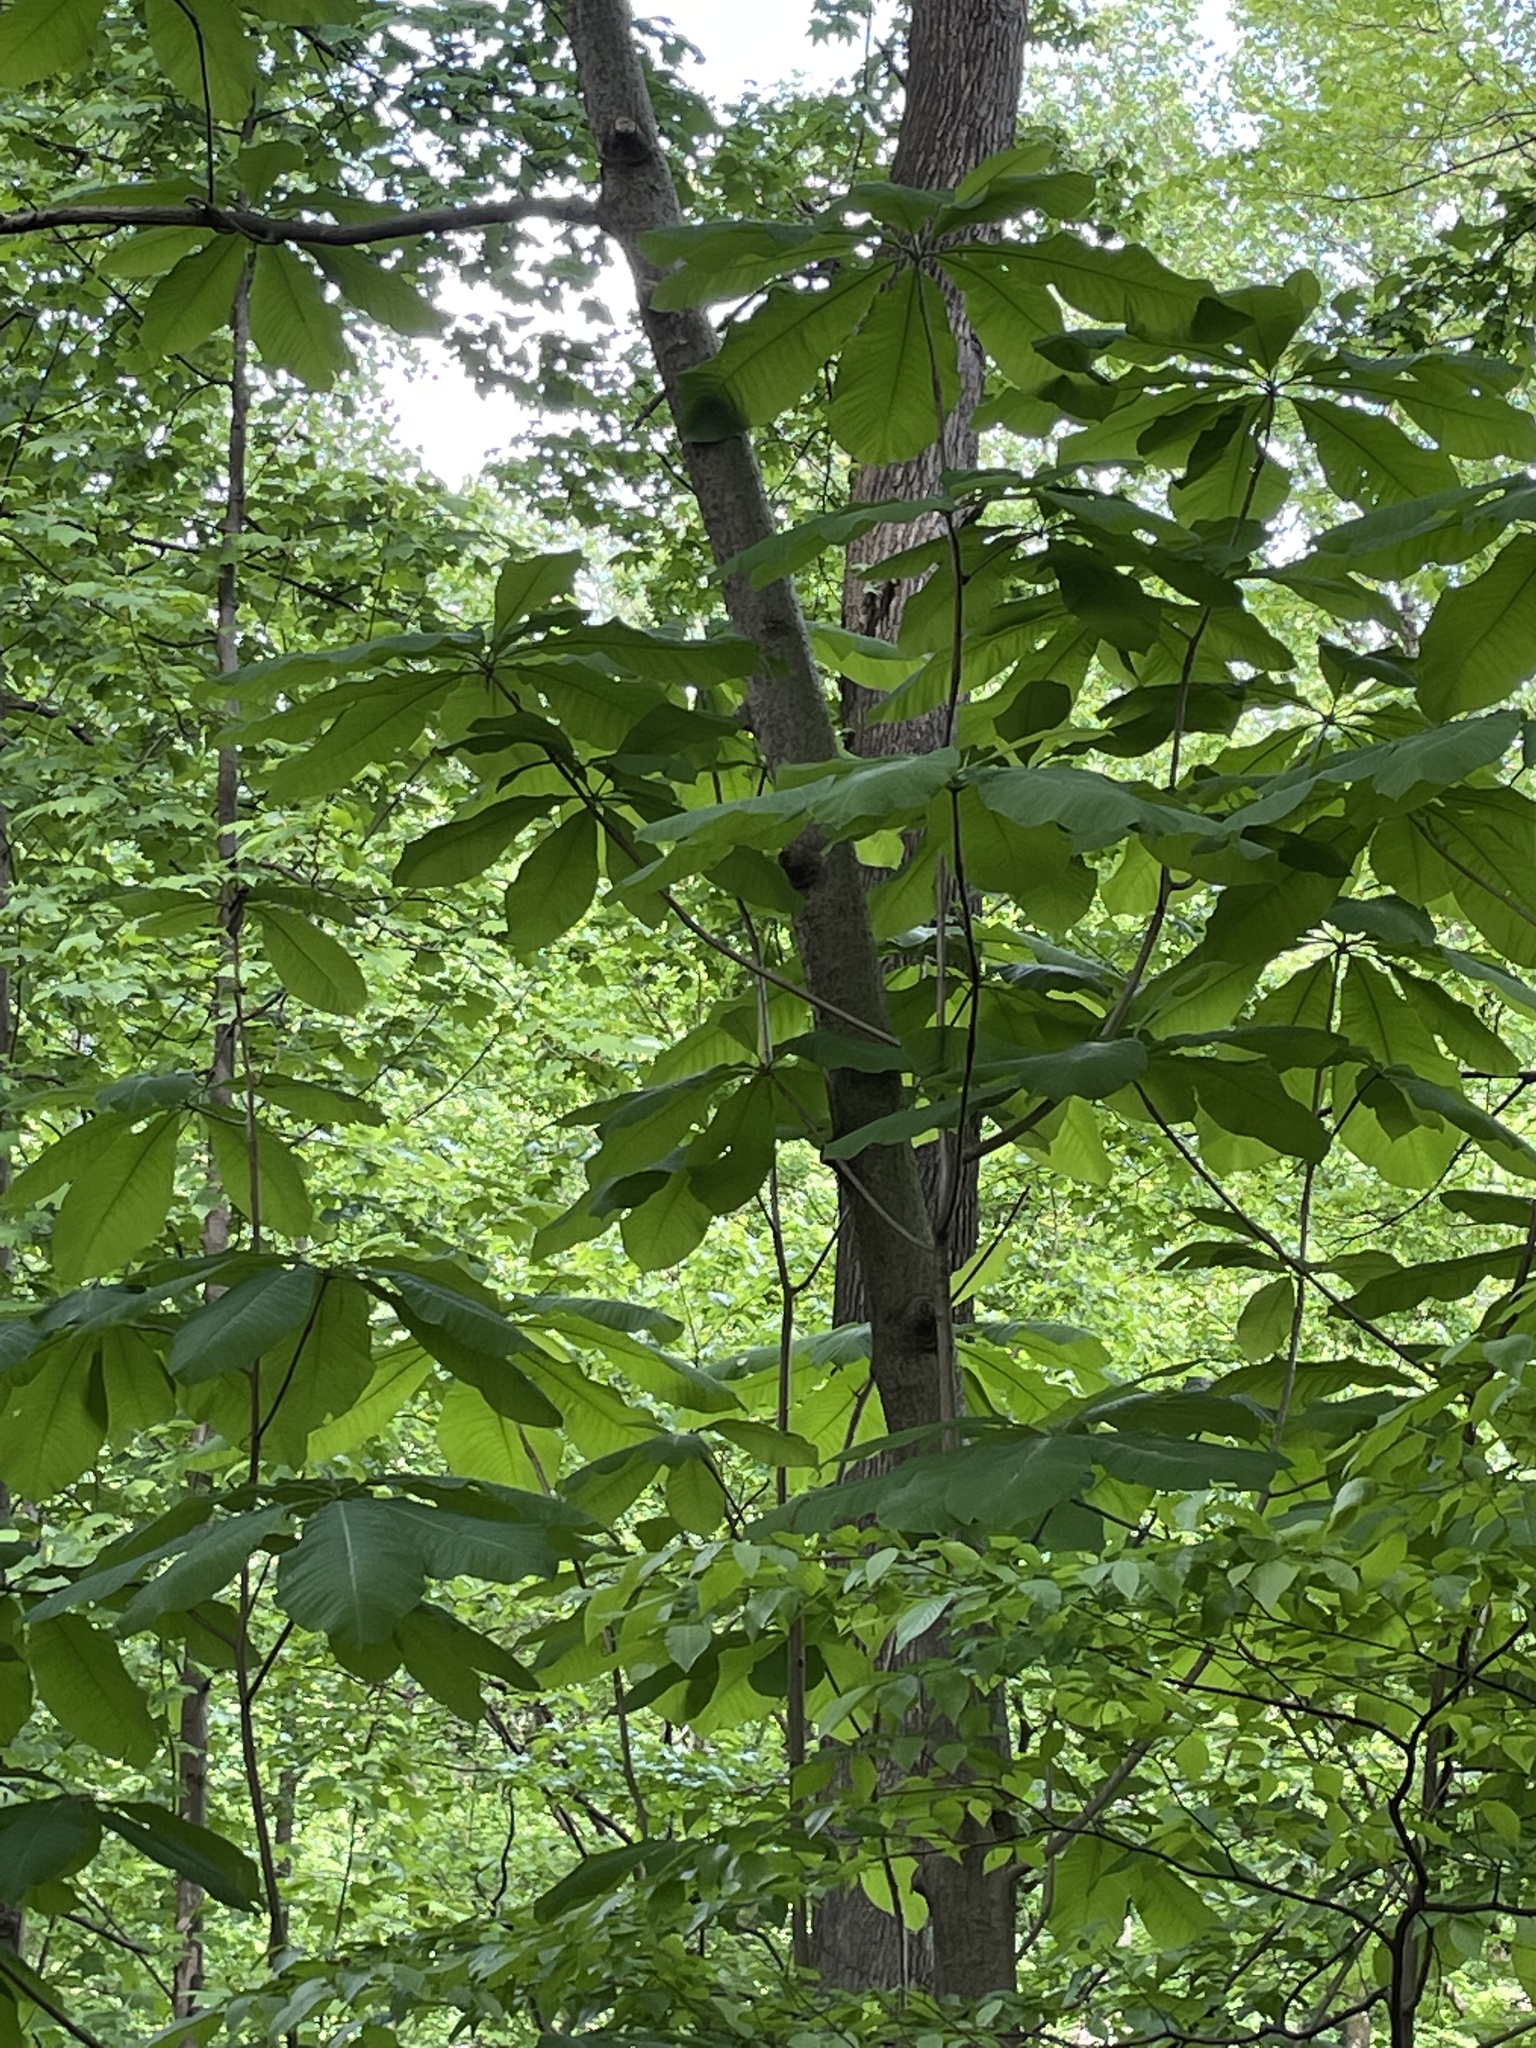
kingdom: Plantae
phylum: Tracheophyta
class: Magnoliopsida
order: Magnoliales
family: Magnoliaceae
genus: Magnolia
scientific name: Magnolia tripetala
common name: Umbrella magnolia
